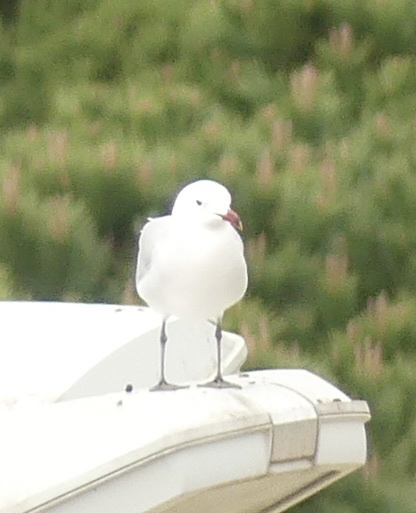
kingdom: Animalia
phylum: Chordata
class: Aves
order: Charadriiformes
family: Laridae
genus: Ichthyaetus
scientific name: Ichthyaetus audouinii
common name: Audouin's gull
